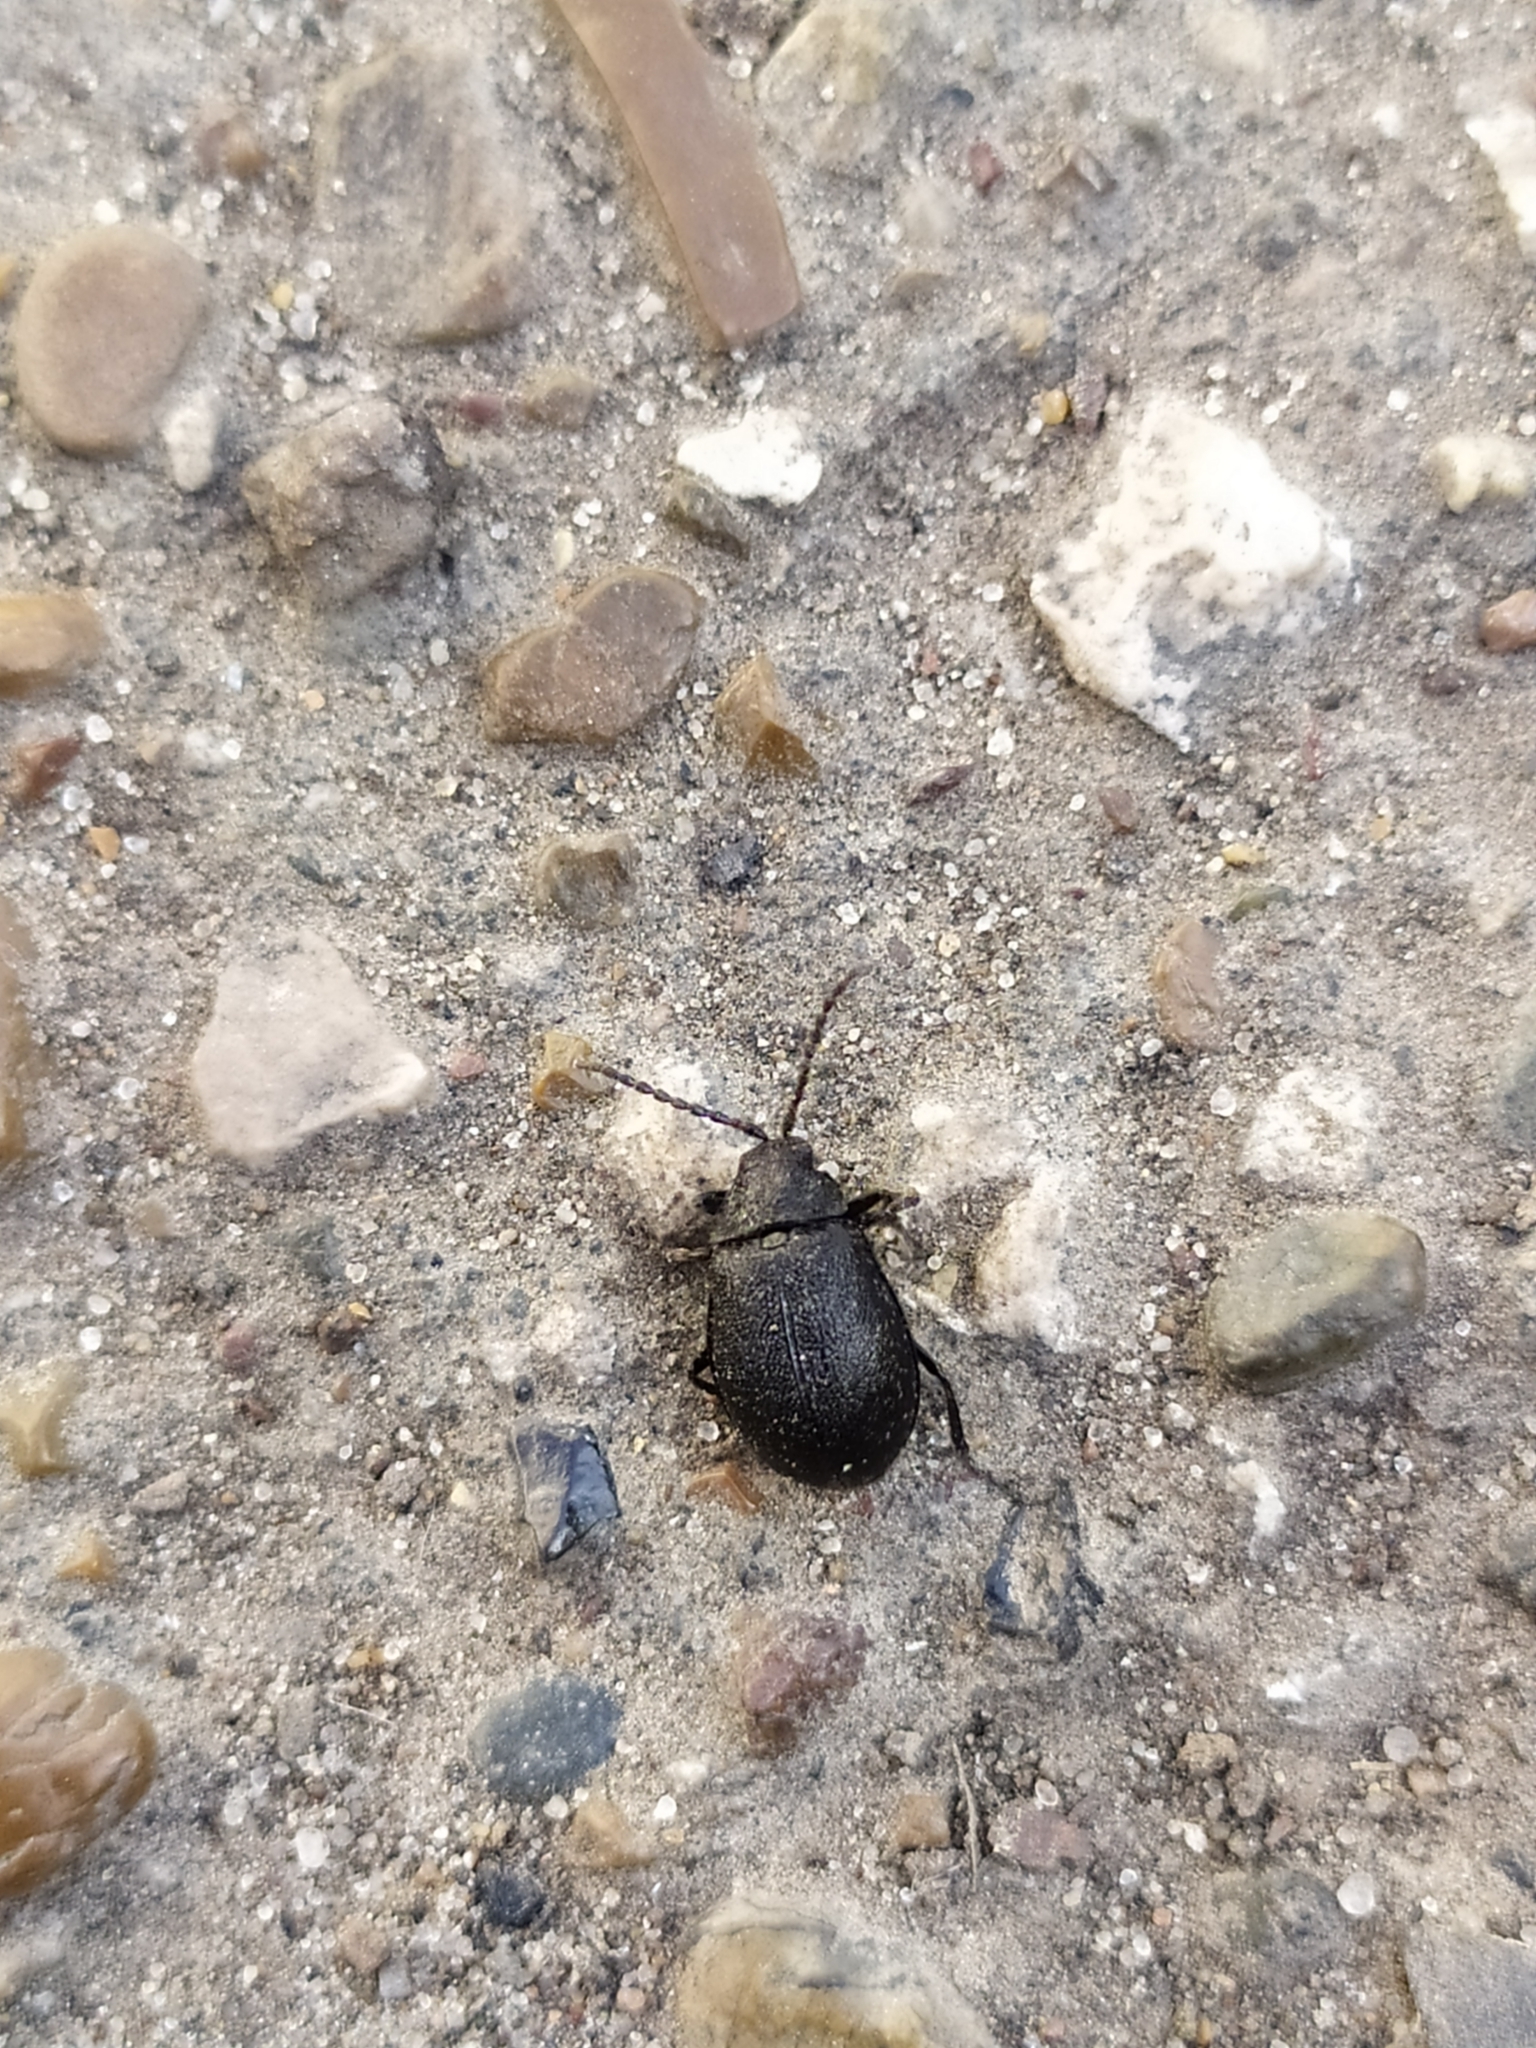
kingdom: Animalia
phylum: Arthropoda
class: Insecta
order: Coleoptera
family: Chrysomelidae
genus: Galeruca
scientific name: Galeruca tanaceti
